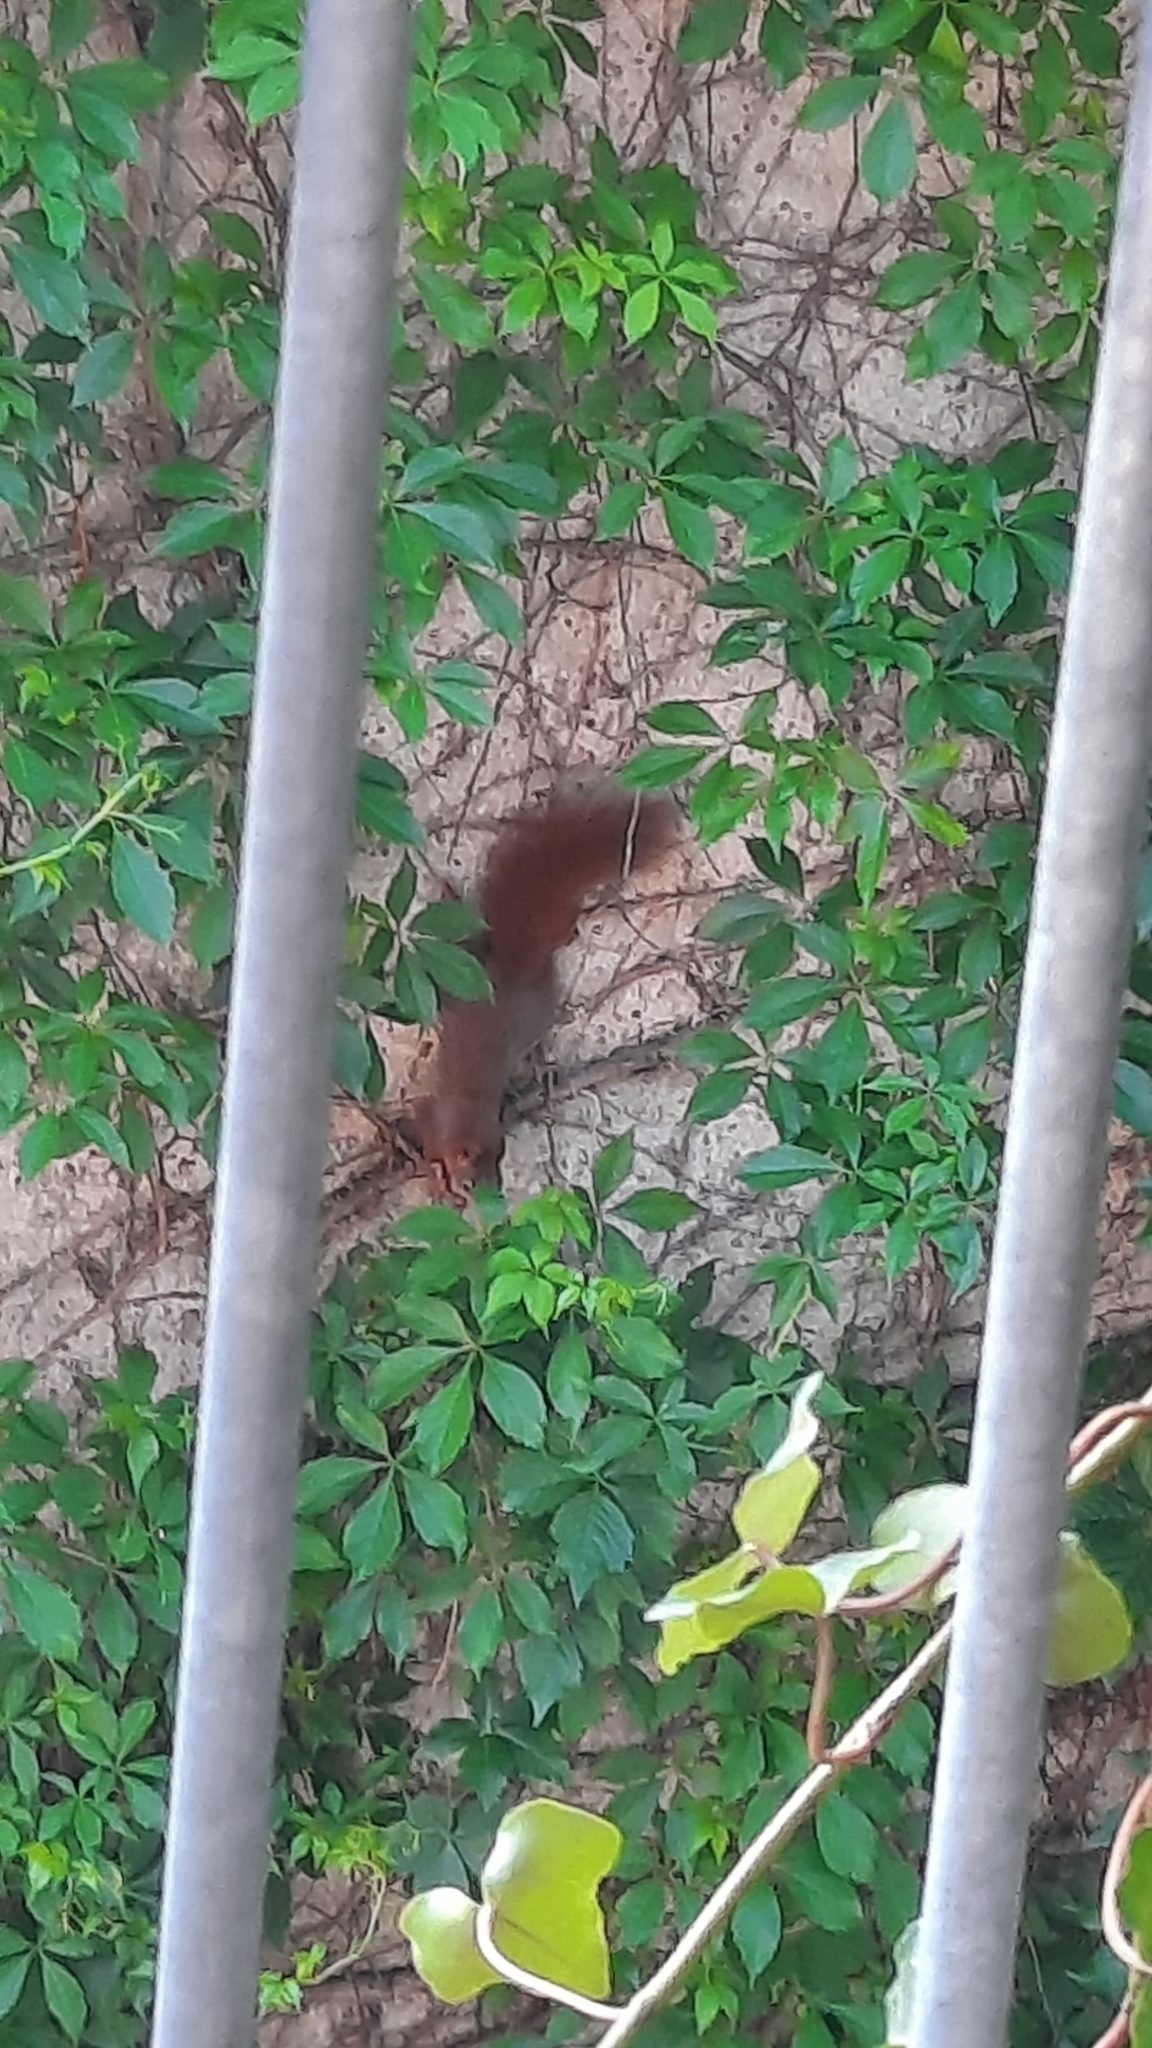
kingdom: Animalia
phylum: Chordata
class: Mammalia
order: Rodentia
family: Sciuridae
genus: Sciurus
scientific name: Sciurus vulgaris
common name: Eurasian red squirrel
